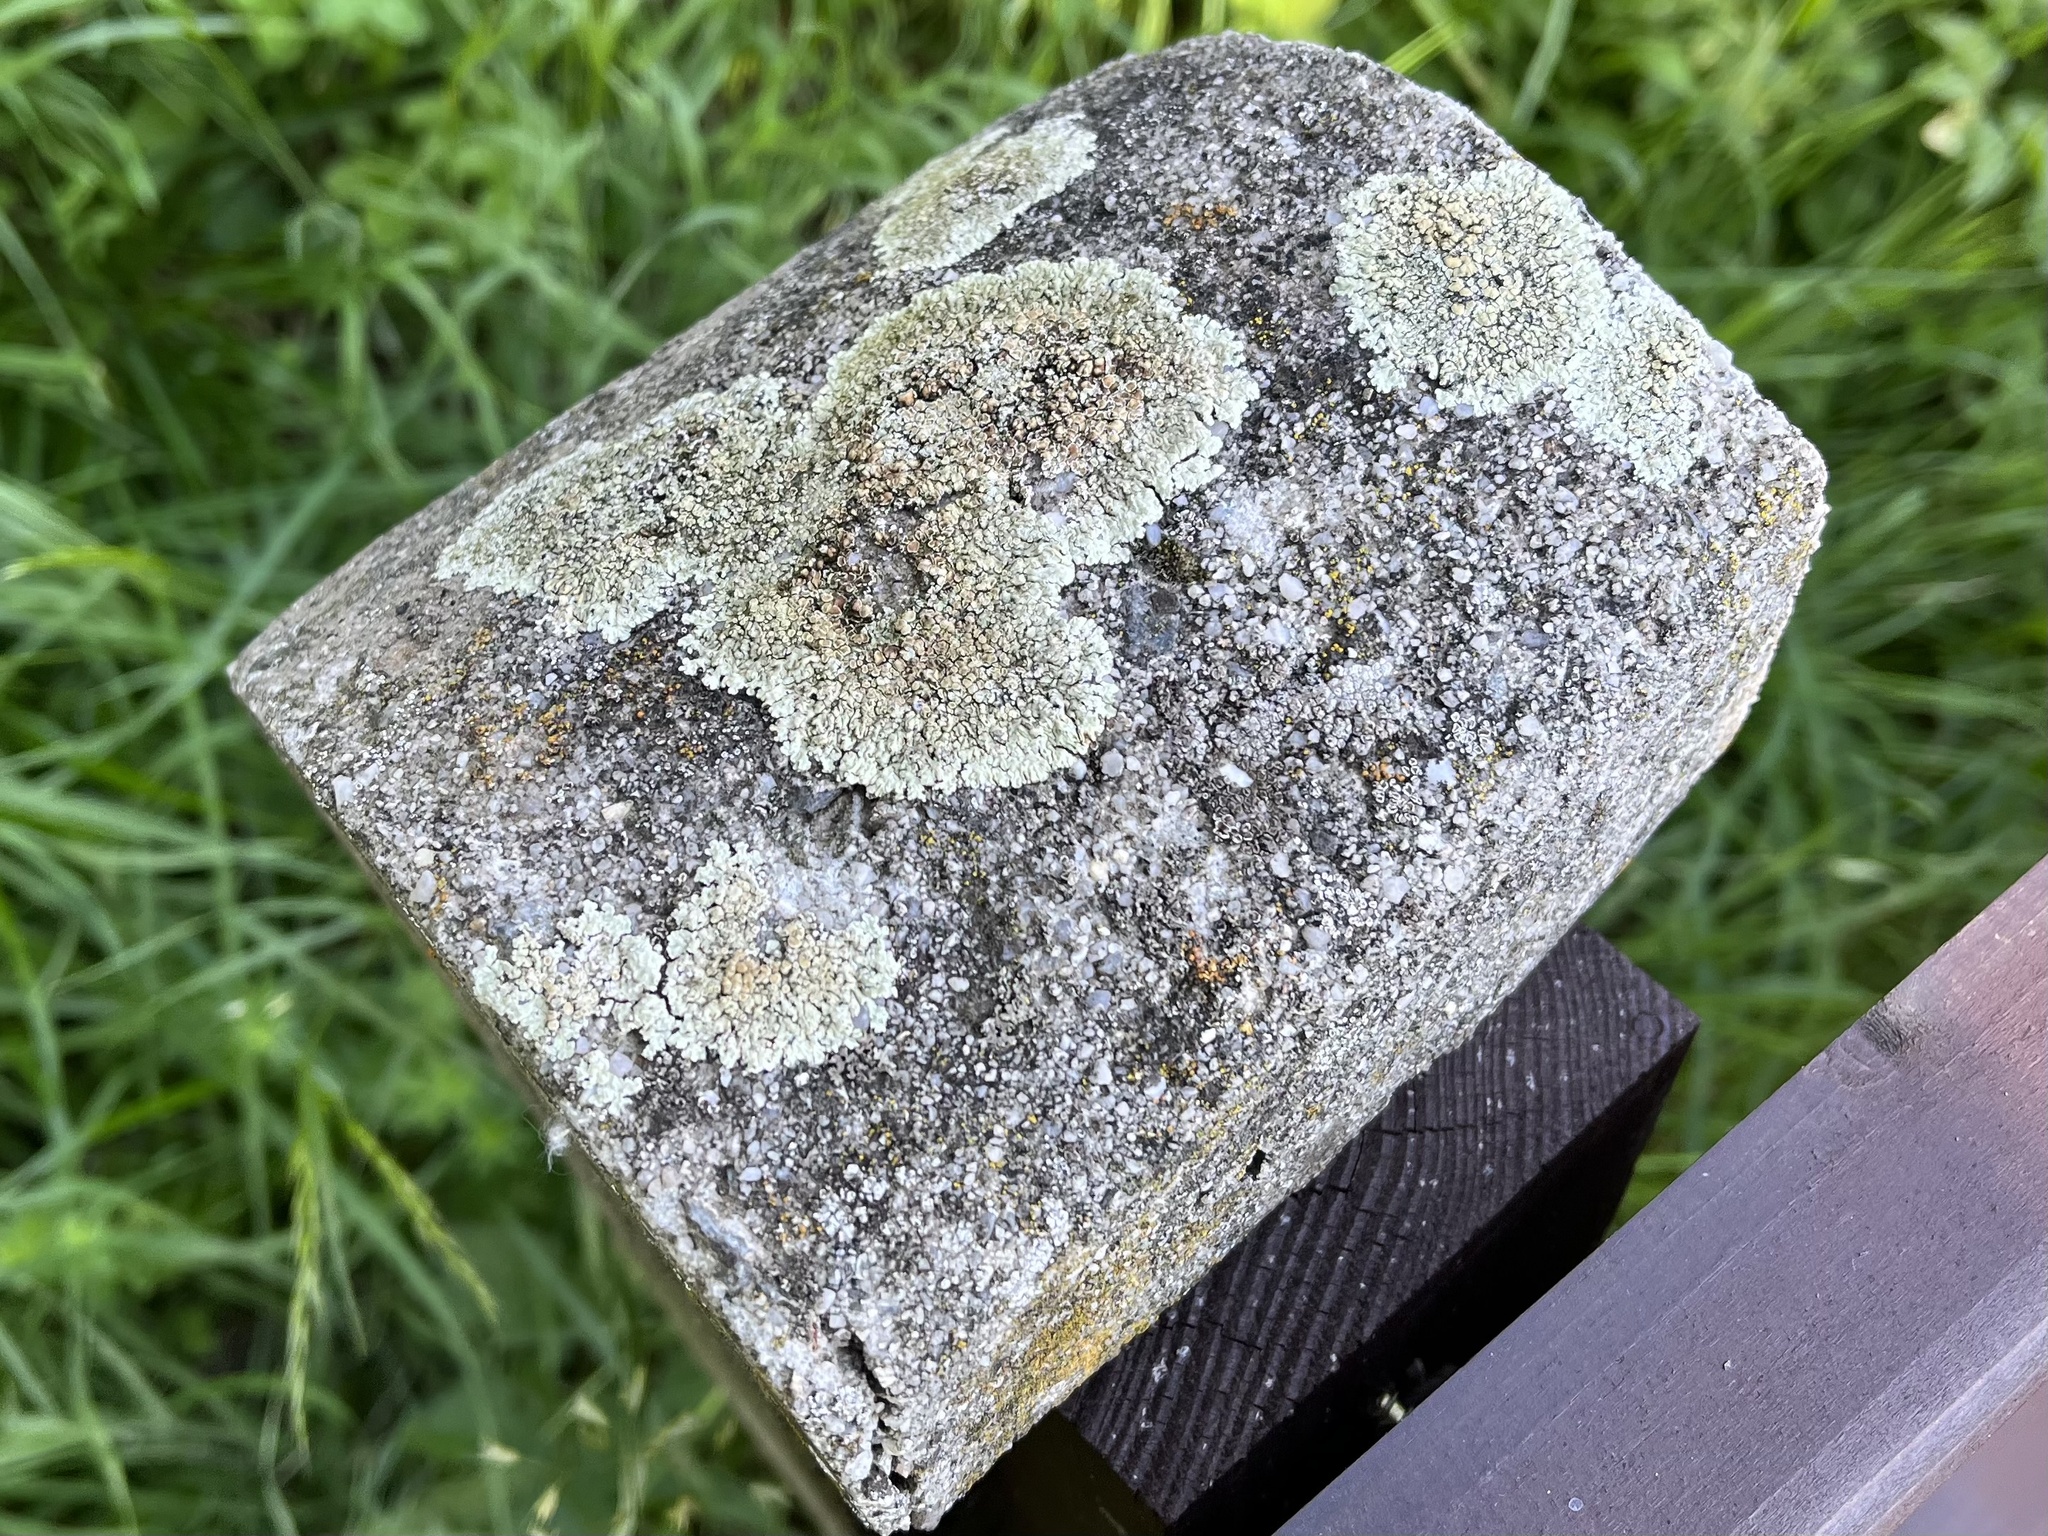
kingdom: Fungi
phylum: Ascomycota
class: Lecanoromycetes
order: Lecanorales
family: Lecanoraceae
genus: Protoparmeliopsis
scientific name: Protoparmeliopsis muralis
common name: Stonewall rim lichen
